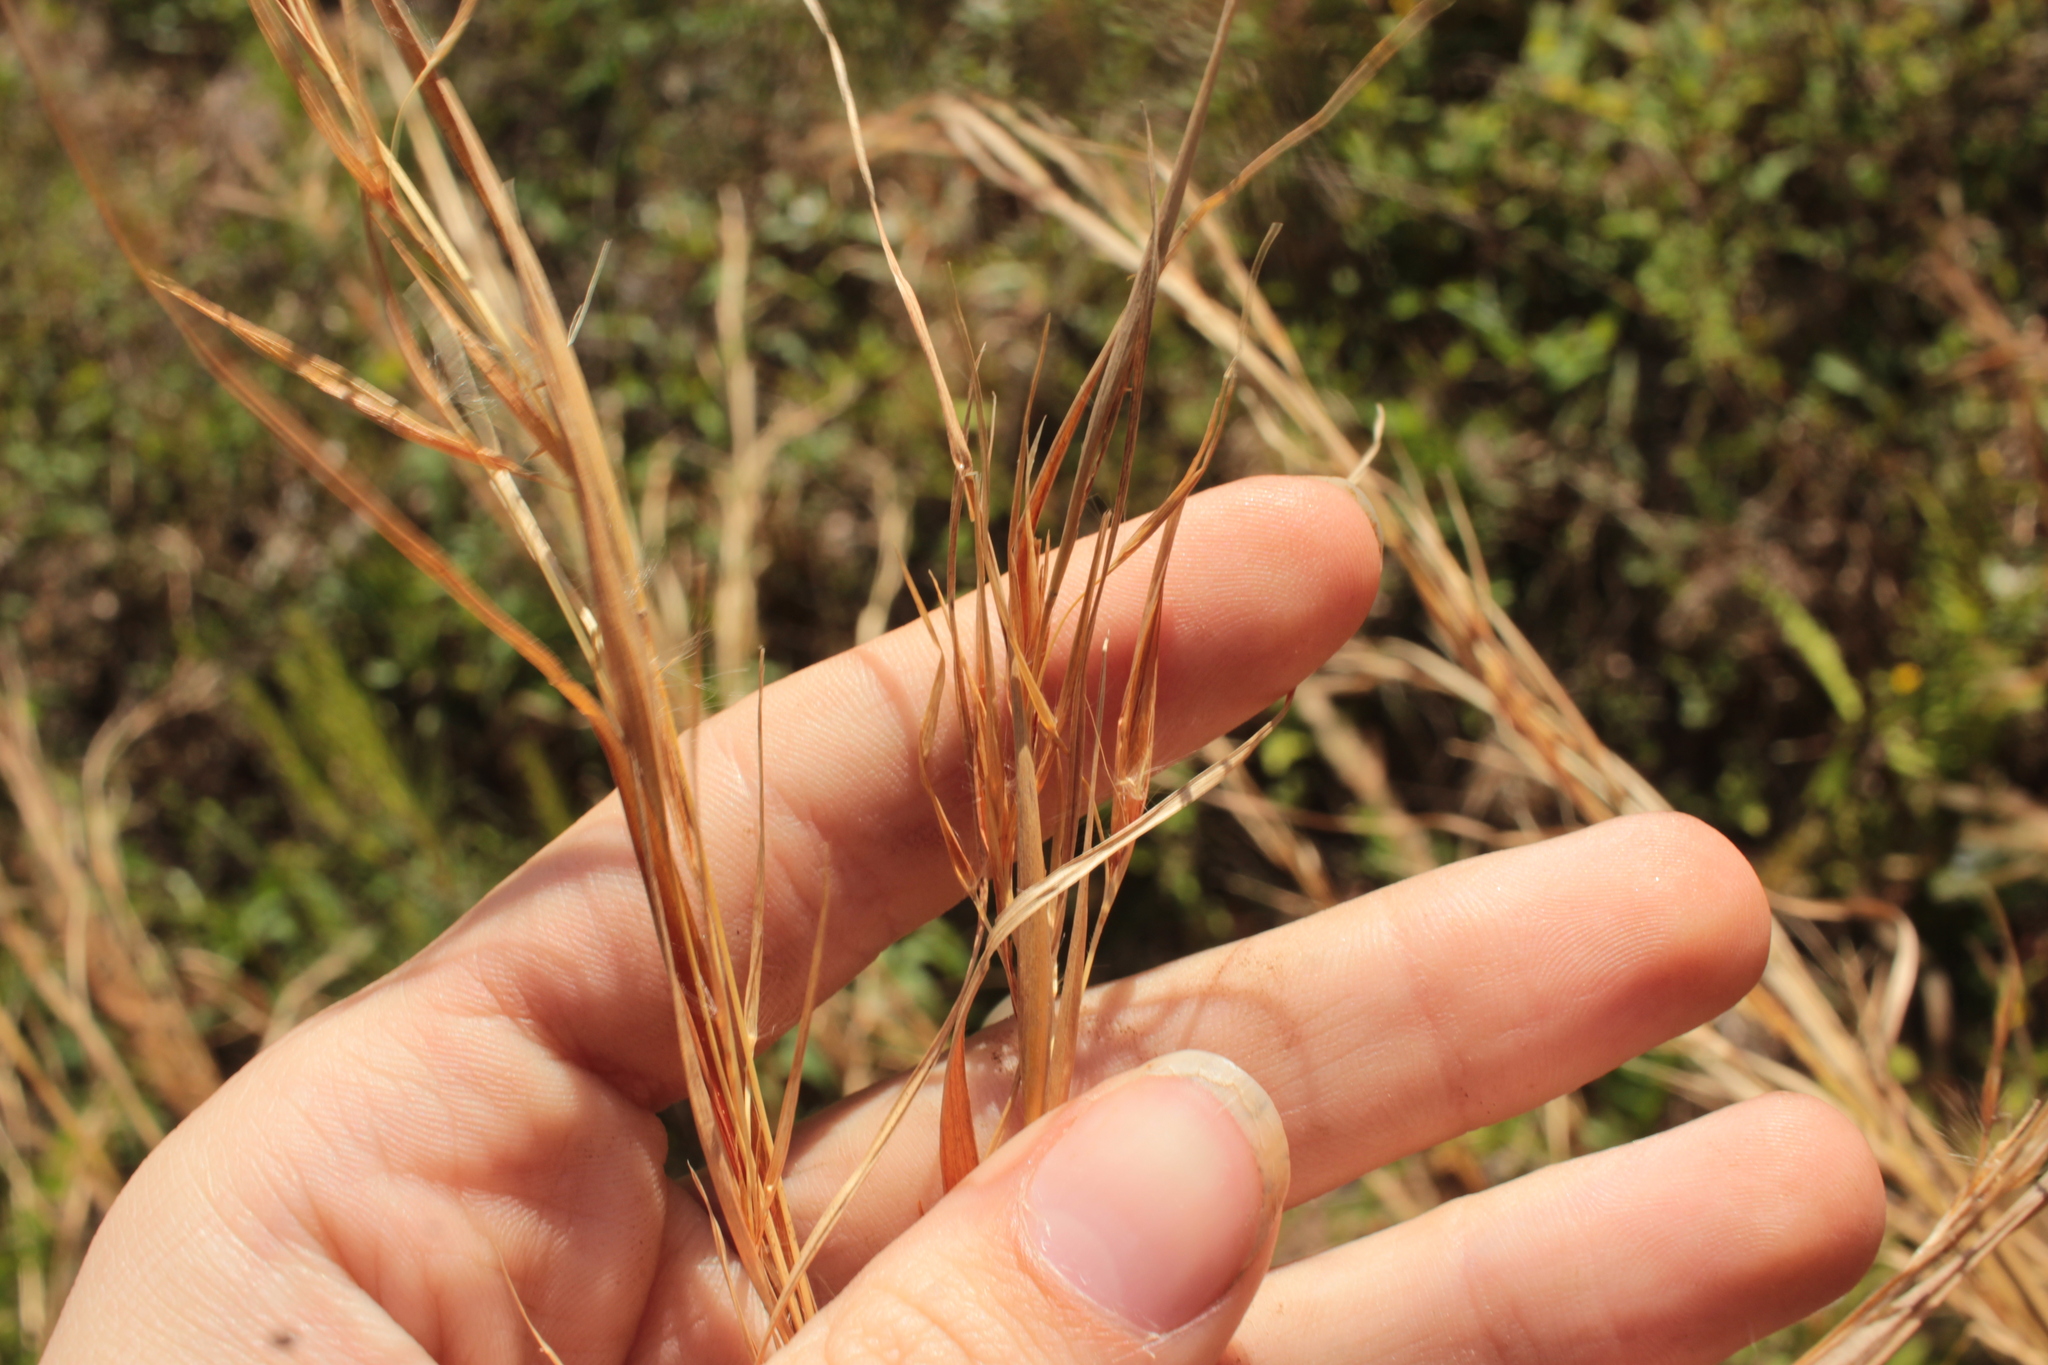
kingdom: Plantae
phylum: Tracheophyta
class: Liliopsida
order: Poales
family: Poaceae
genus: Andropogon
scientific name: Andropogon virginicus
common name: Broomsedge bluestem
